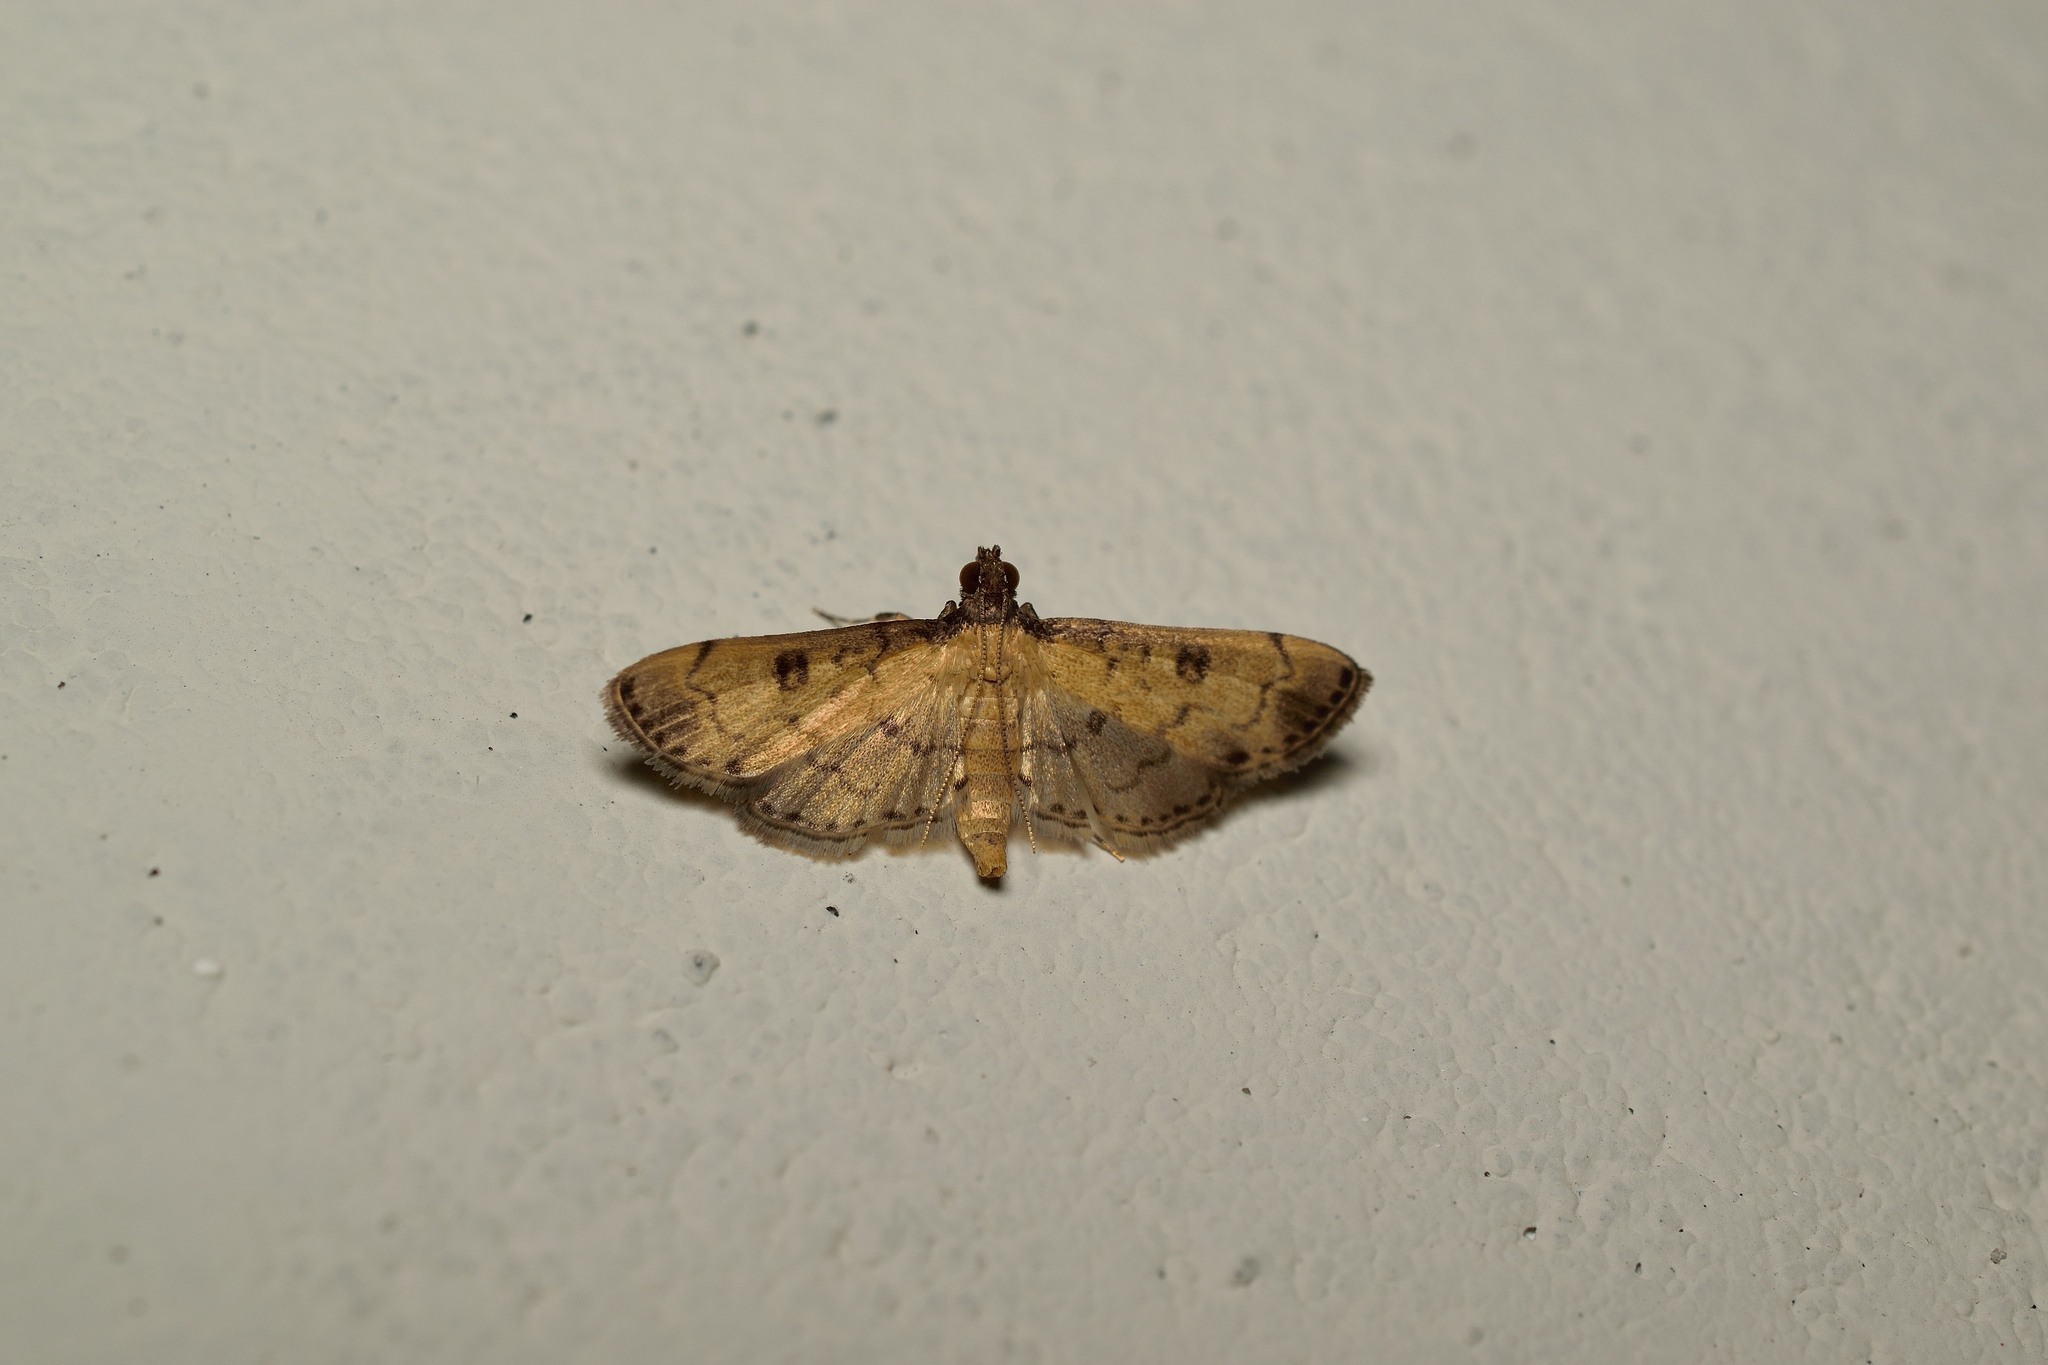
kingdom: Animalia
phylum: Arthropoda
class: Insecta
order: Lepidoptera
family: Crambidae
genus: Nacoleia
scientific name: Nacoleia charesalis
